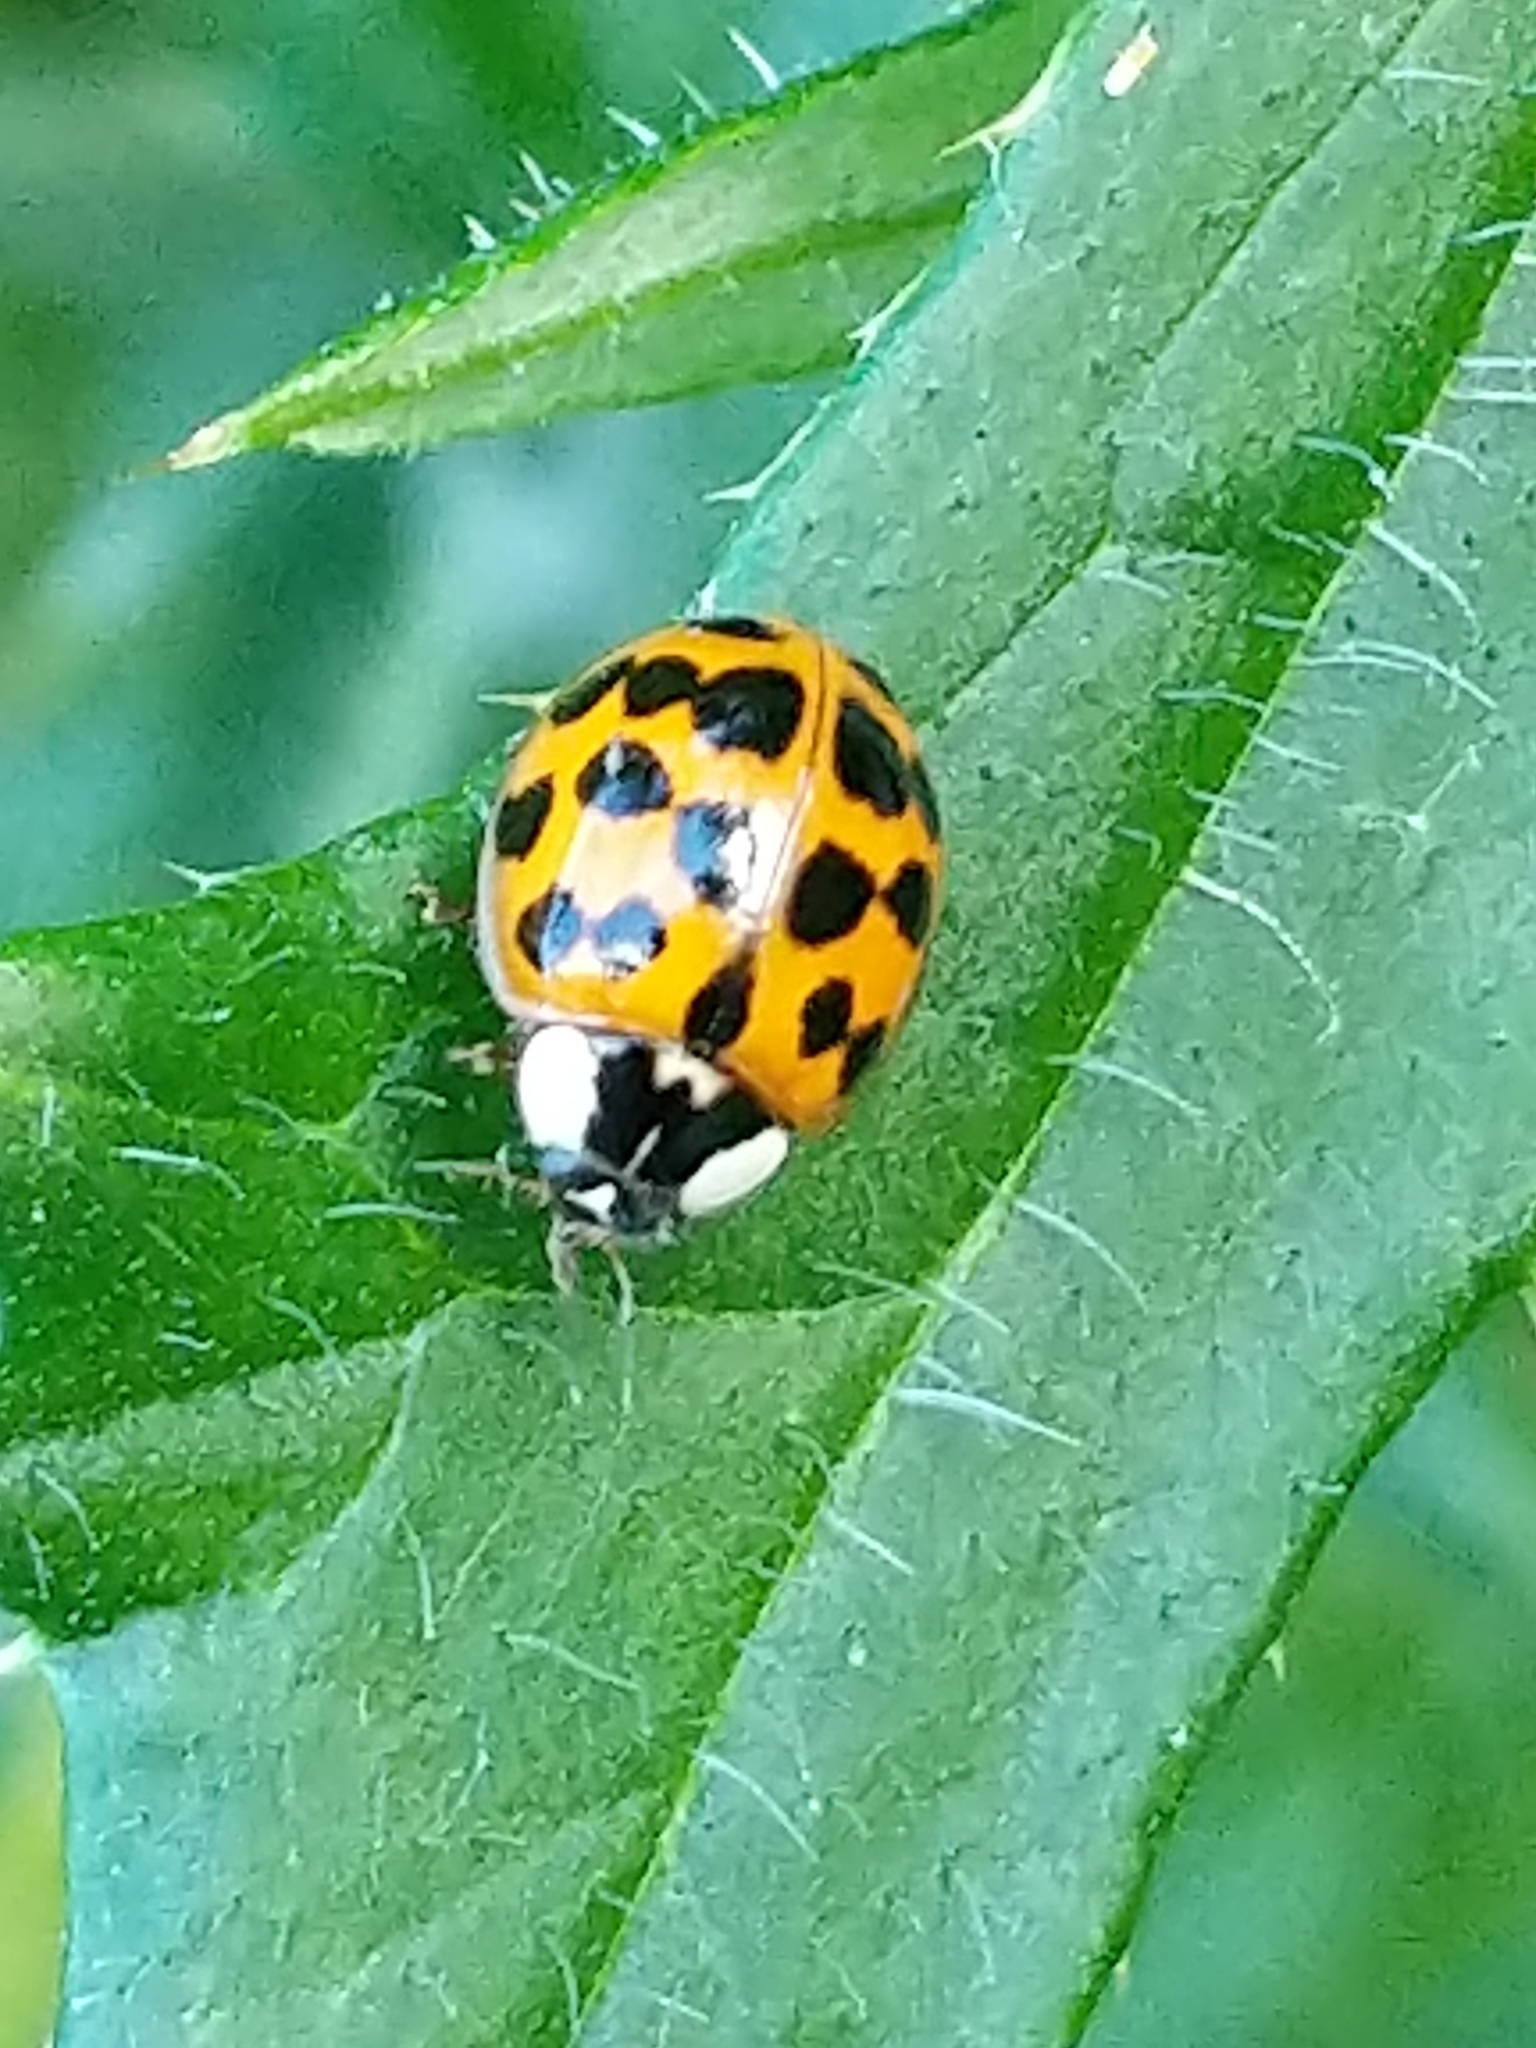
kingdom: Animalia
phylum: Arthropoda
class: Insecta
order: Coleoptera
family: Coccinellidae
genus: Harmonia
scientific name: Harmonia axyridis
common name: Harlequin ladybird
